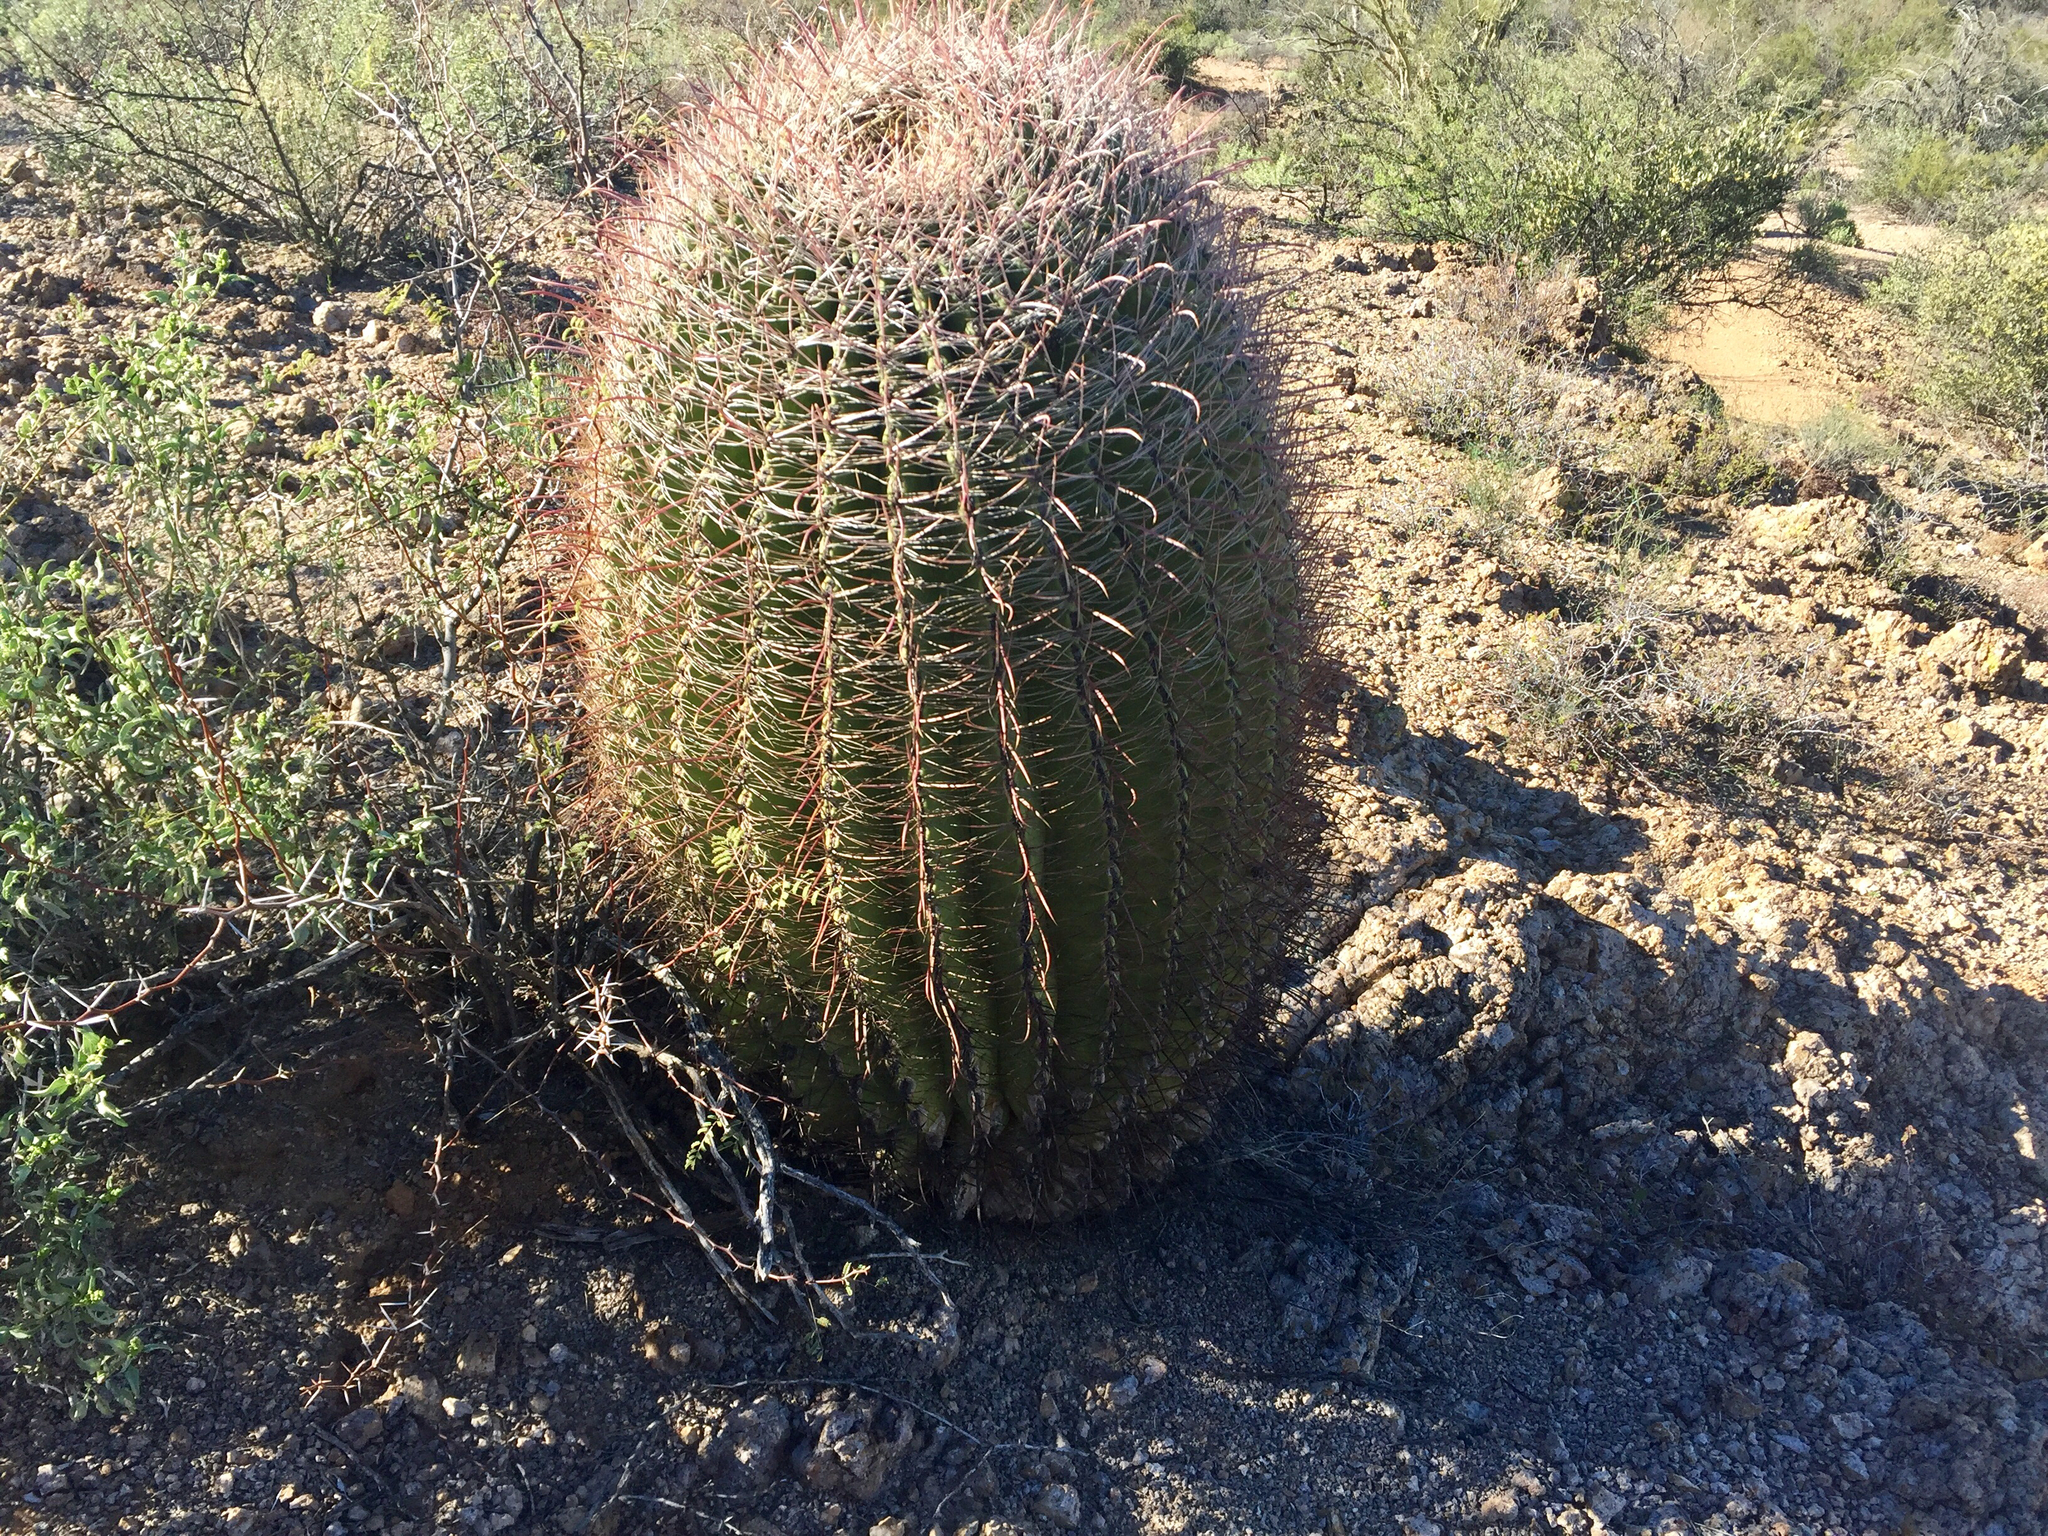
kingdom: Plantae
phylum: Tracheophyta
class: Magnoliopsida
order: Caryophyllales
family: Cactaceae
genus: Ferocactus
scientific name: Ferocactus wislizeni
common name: Candy barrel cactus
